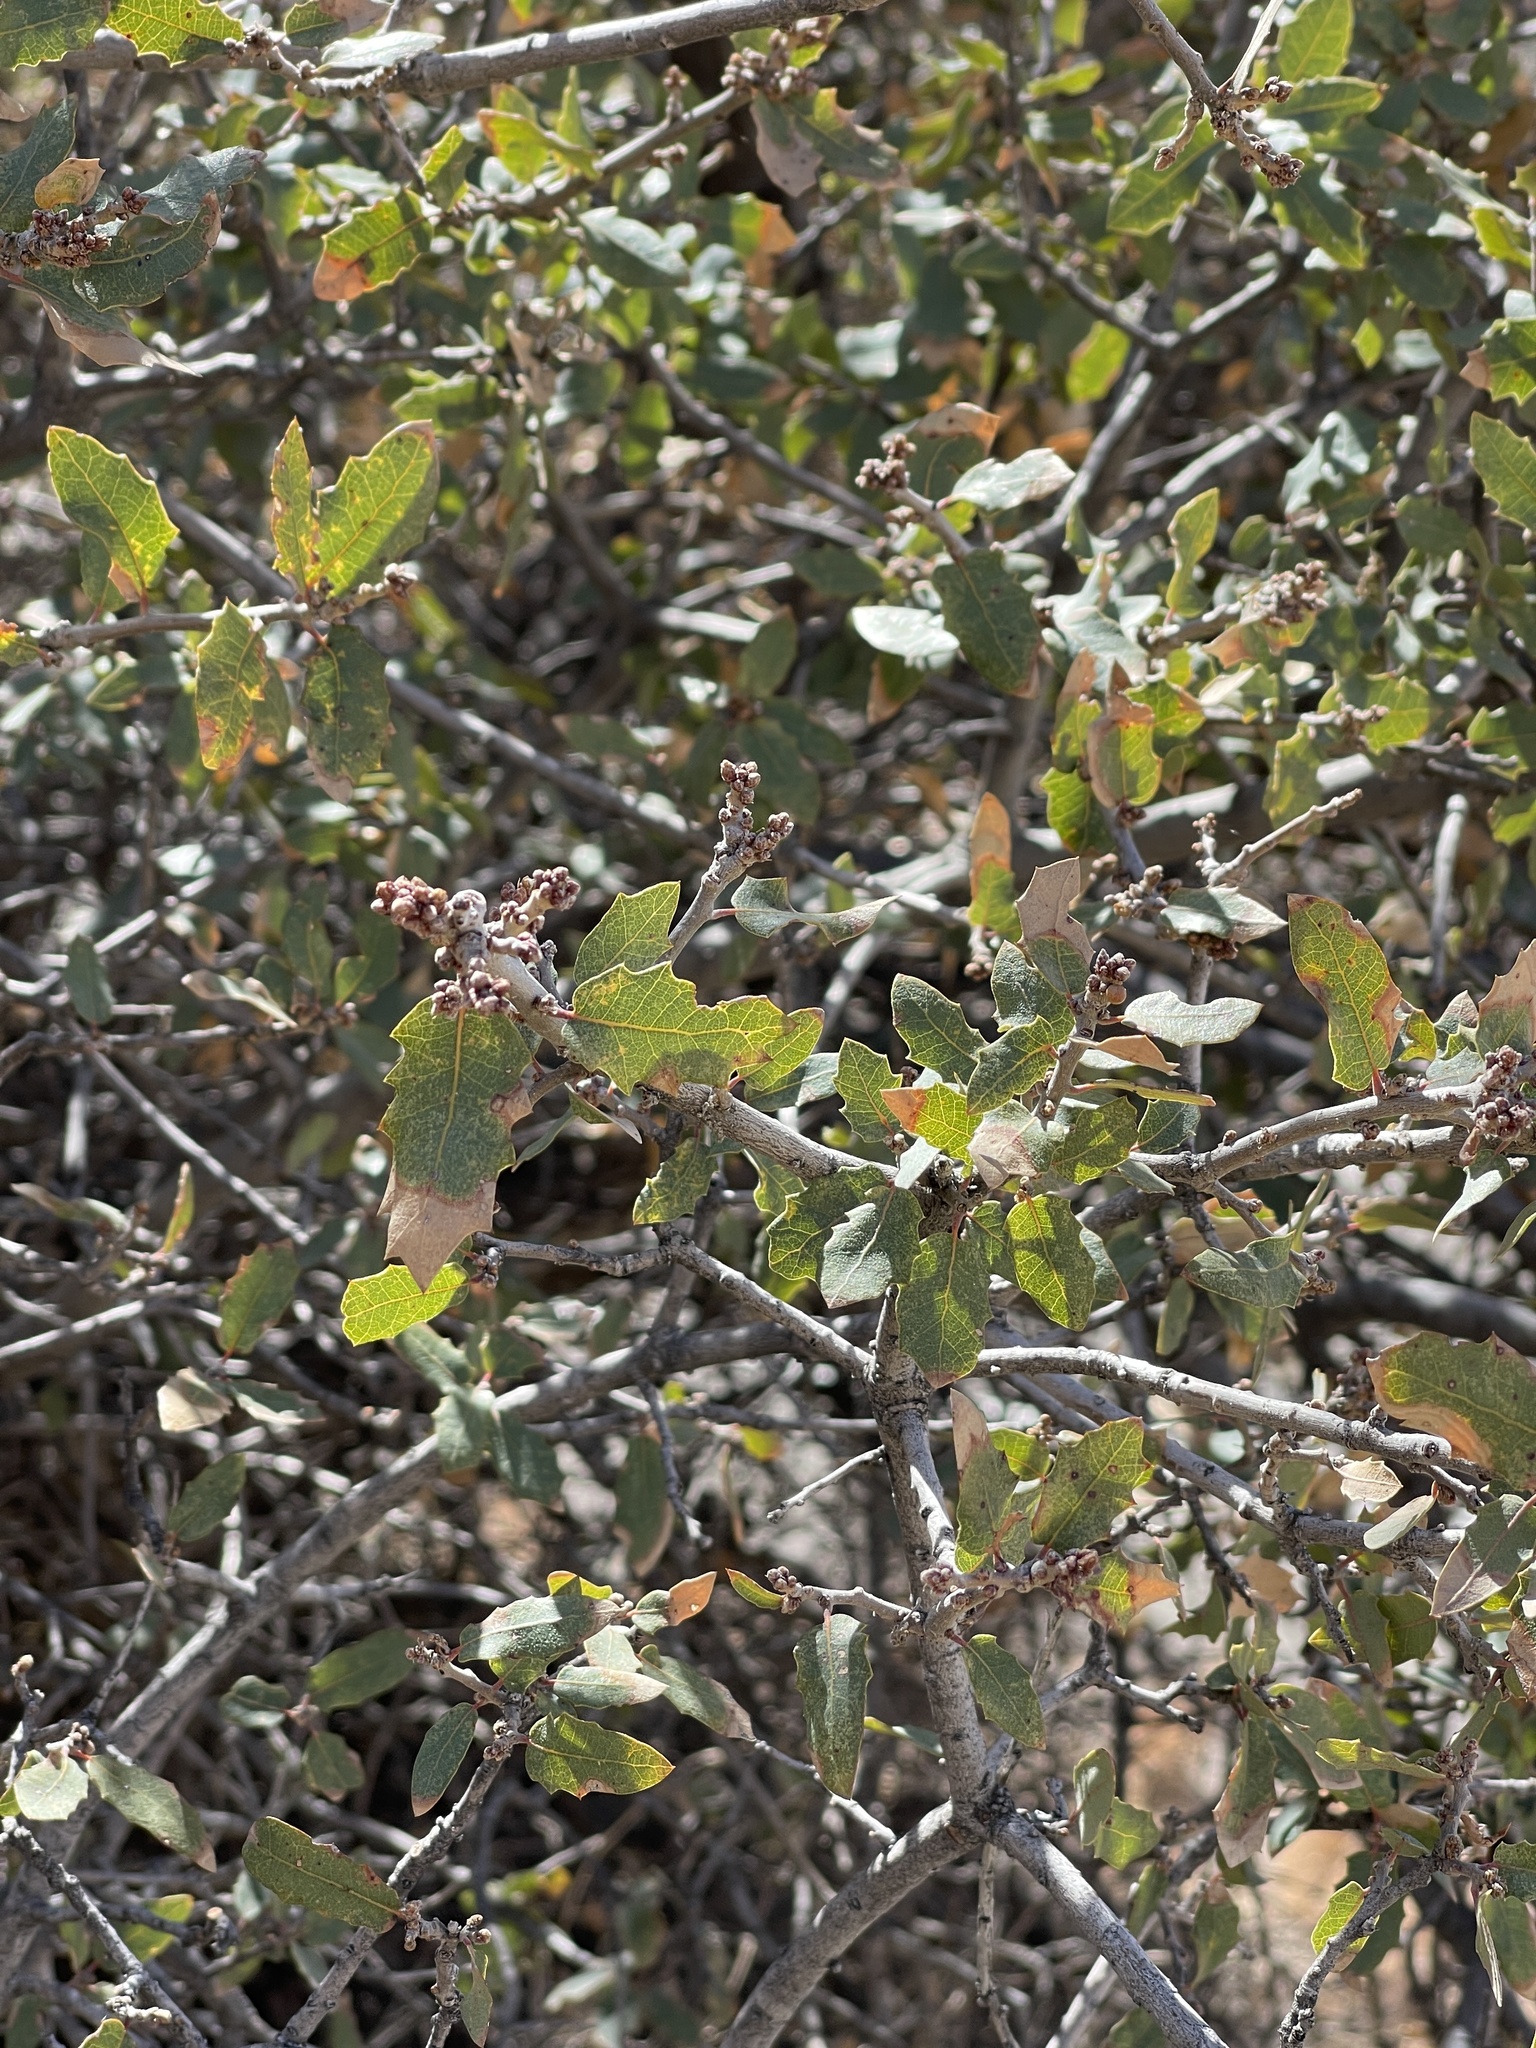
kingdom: Plantae
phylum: Tracheophyta
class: Magnoliopsida
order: Fagales
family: Fagaceae
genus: Quercus
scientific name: Quercus turbinella
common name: Sonoran scrub oak
